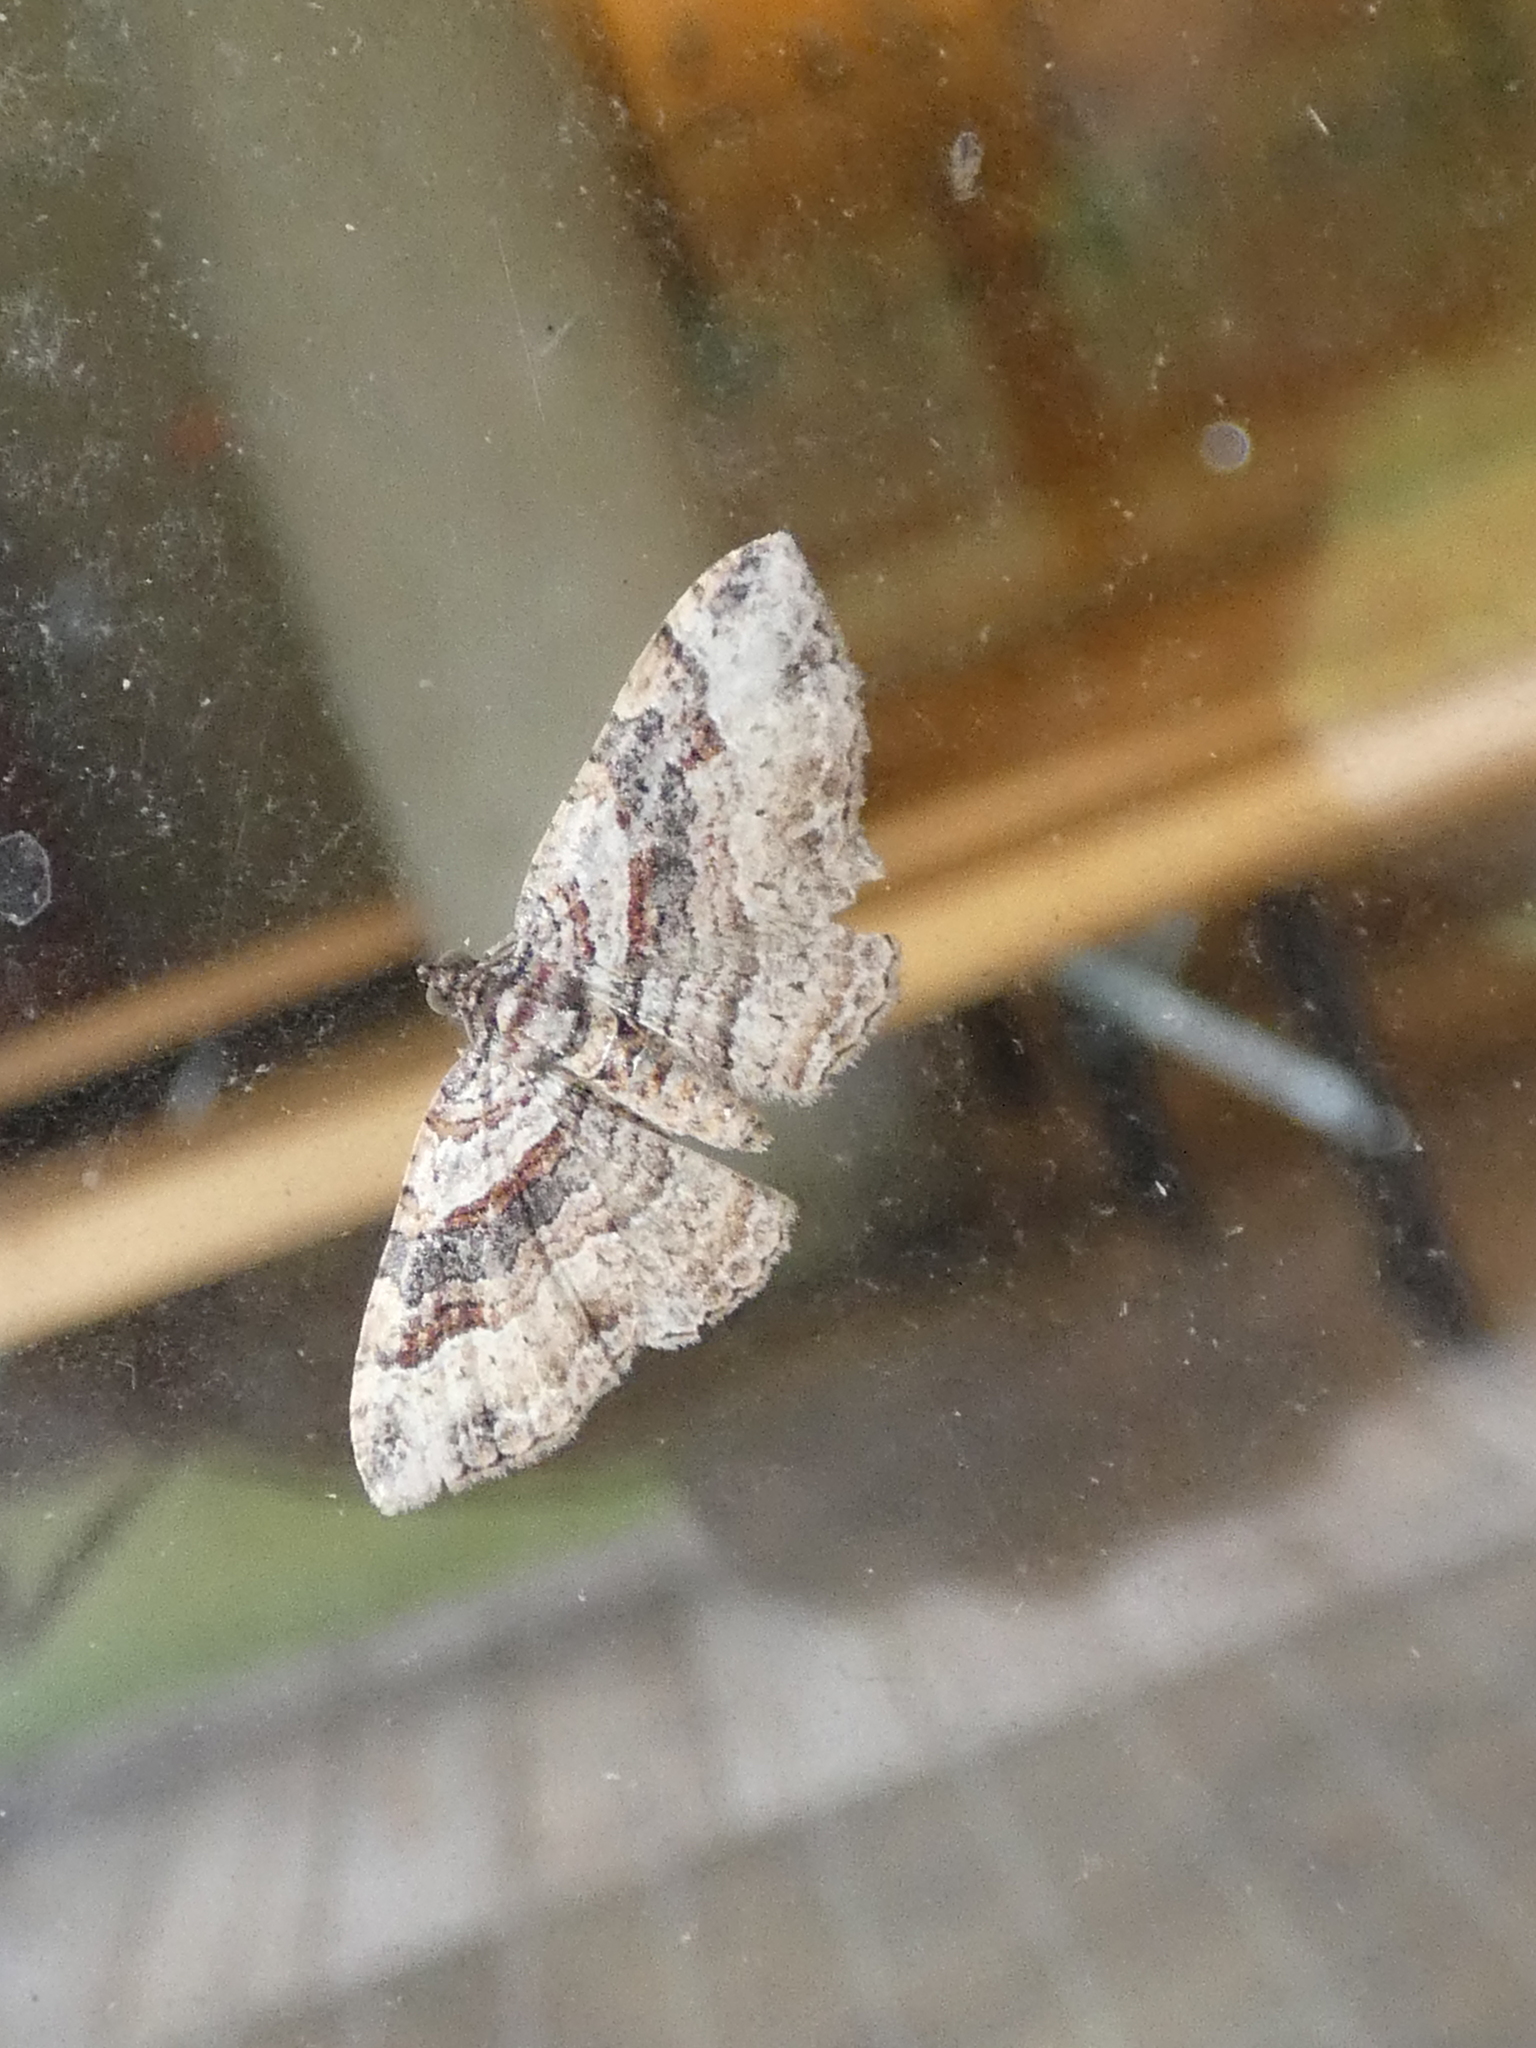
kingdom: Animalia
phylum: Arthropoda
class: Insecta
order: Lepidoptera
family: Geometridae
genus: Costaconvexa
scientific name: Costaconvexa centrostrigaria
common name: Bent-line carpet
